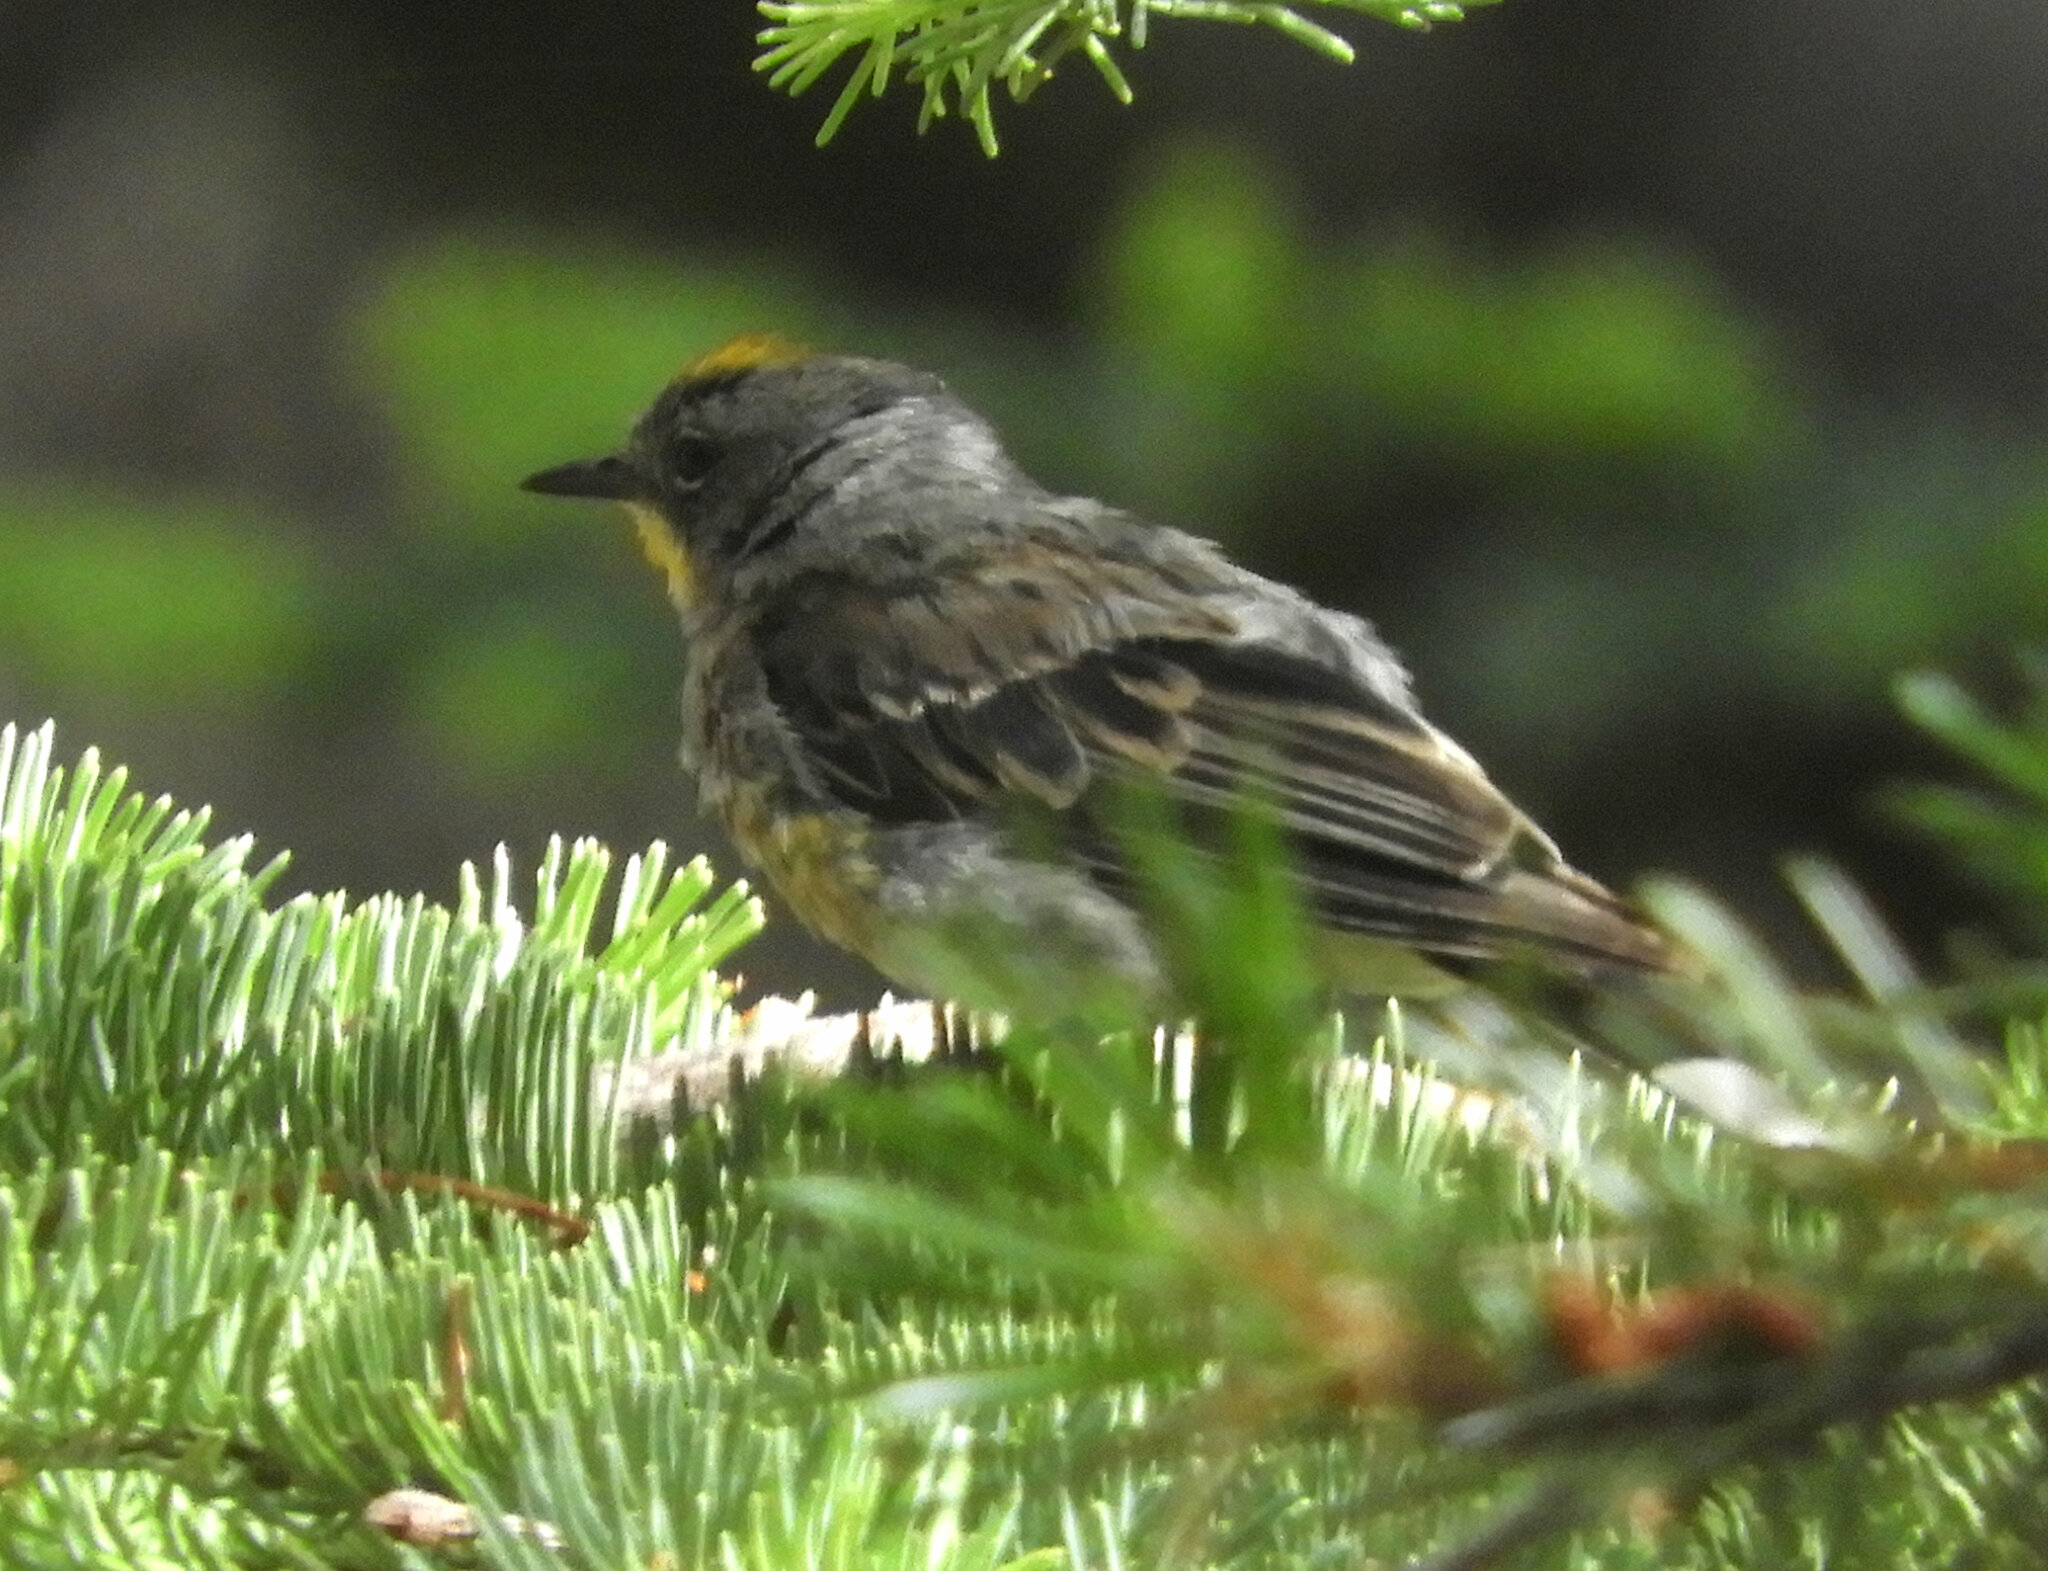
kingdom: Animalia
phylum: Chordata
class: Aves
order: Passeriformes
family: Parulidae
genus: Setophaga
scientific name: Setophaga coronata
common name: Myrtle warbler
